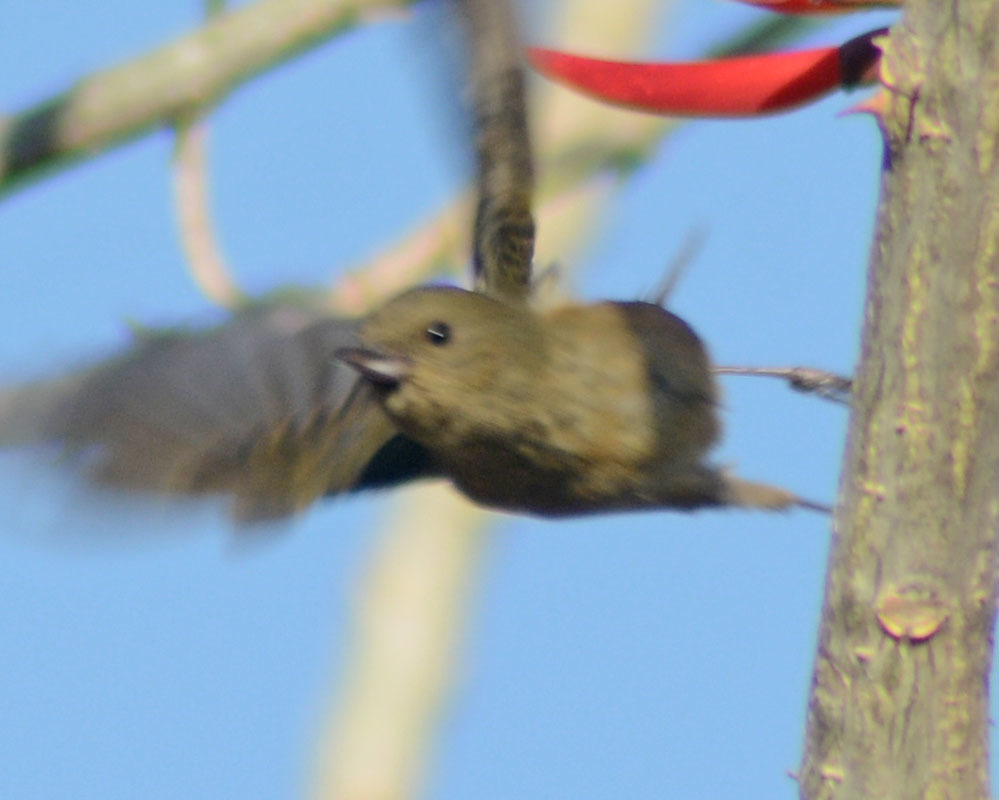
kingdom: Animalia
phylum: Chordata
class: Aves
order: Passeriformes
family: Thraupidae
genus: Diglossa
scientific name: Diglossa baritula
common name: Cinnamon-bellied flowerpiercer
